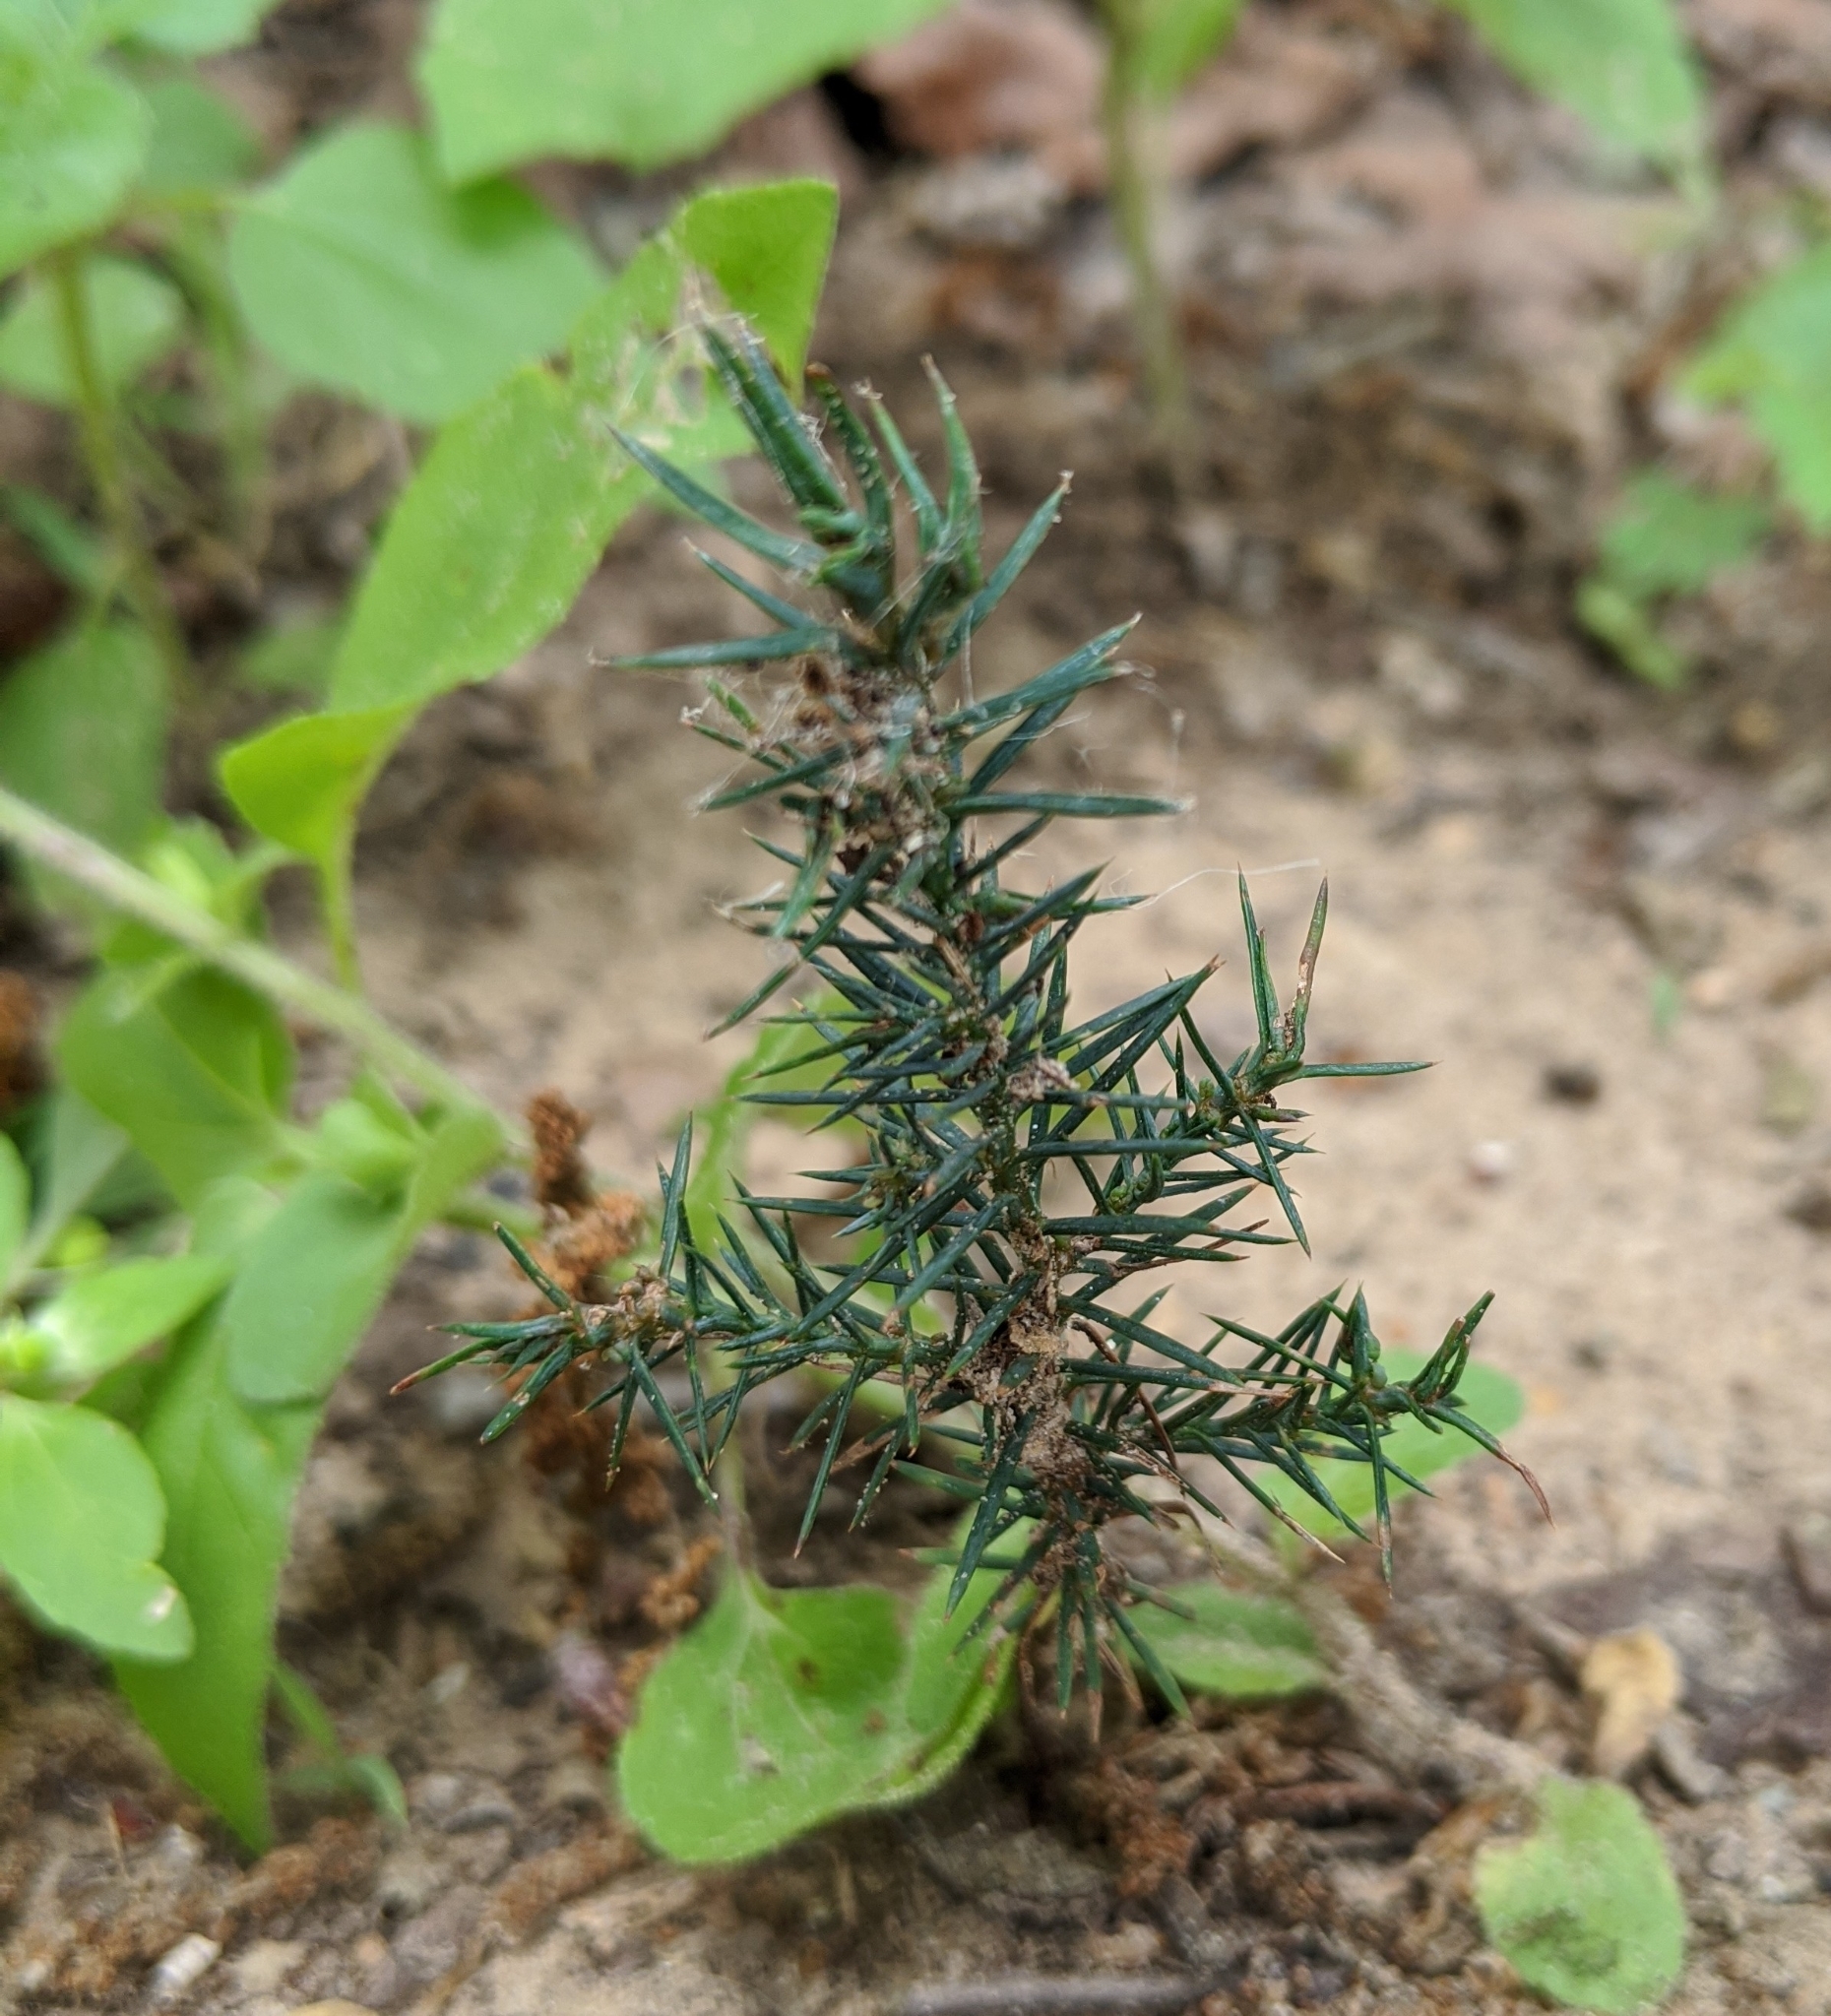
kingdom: Plantae
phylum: Tracheophyta
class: Pinopsida
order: Pinales
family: Cupressaceae
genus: Juniperus
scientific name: Juniperus virginiana
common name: Red juniper
